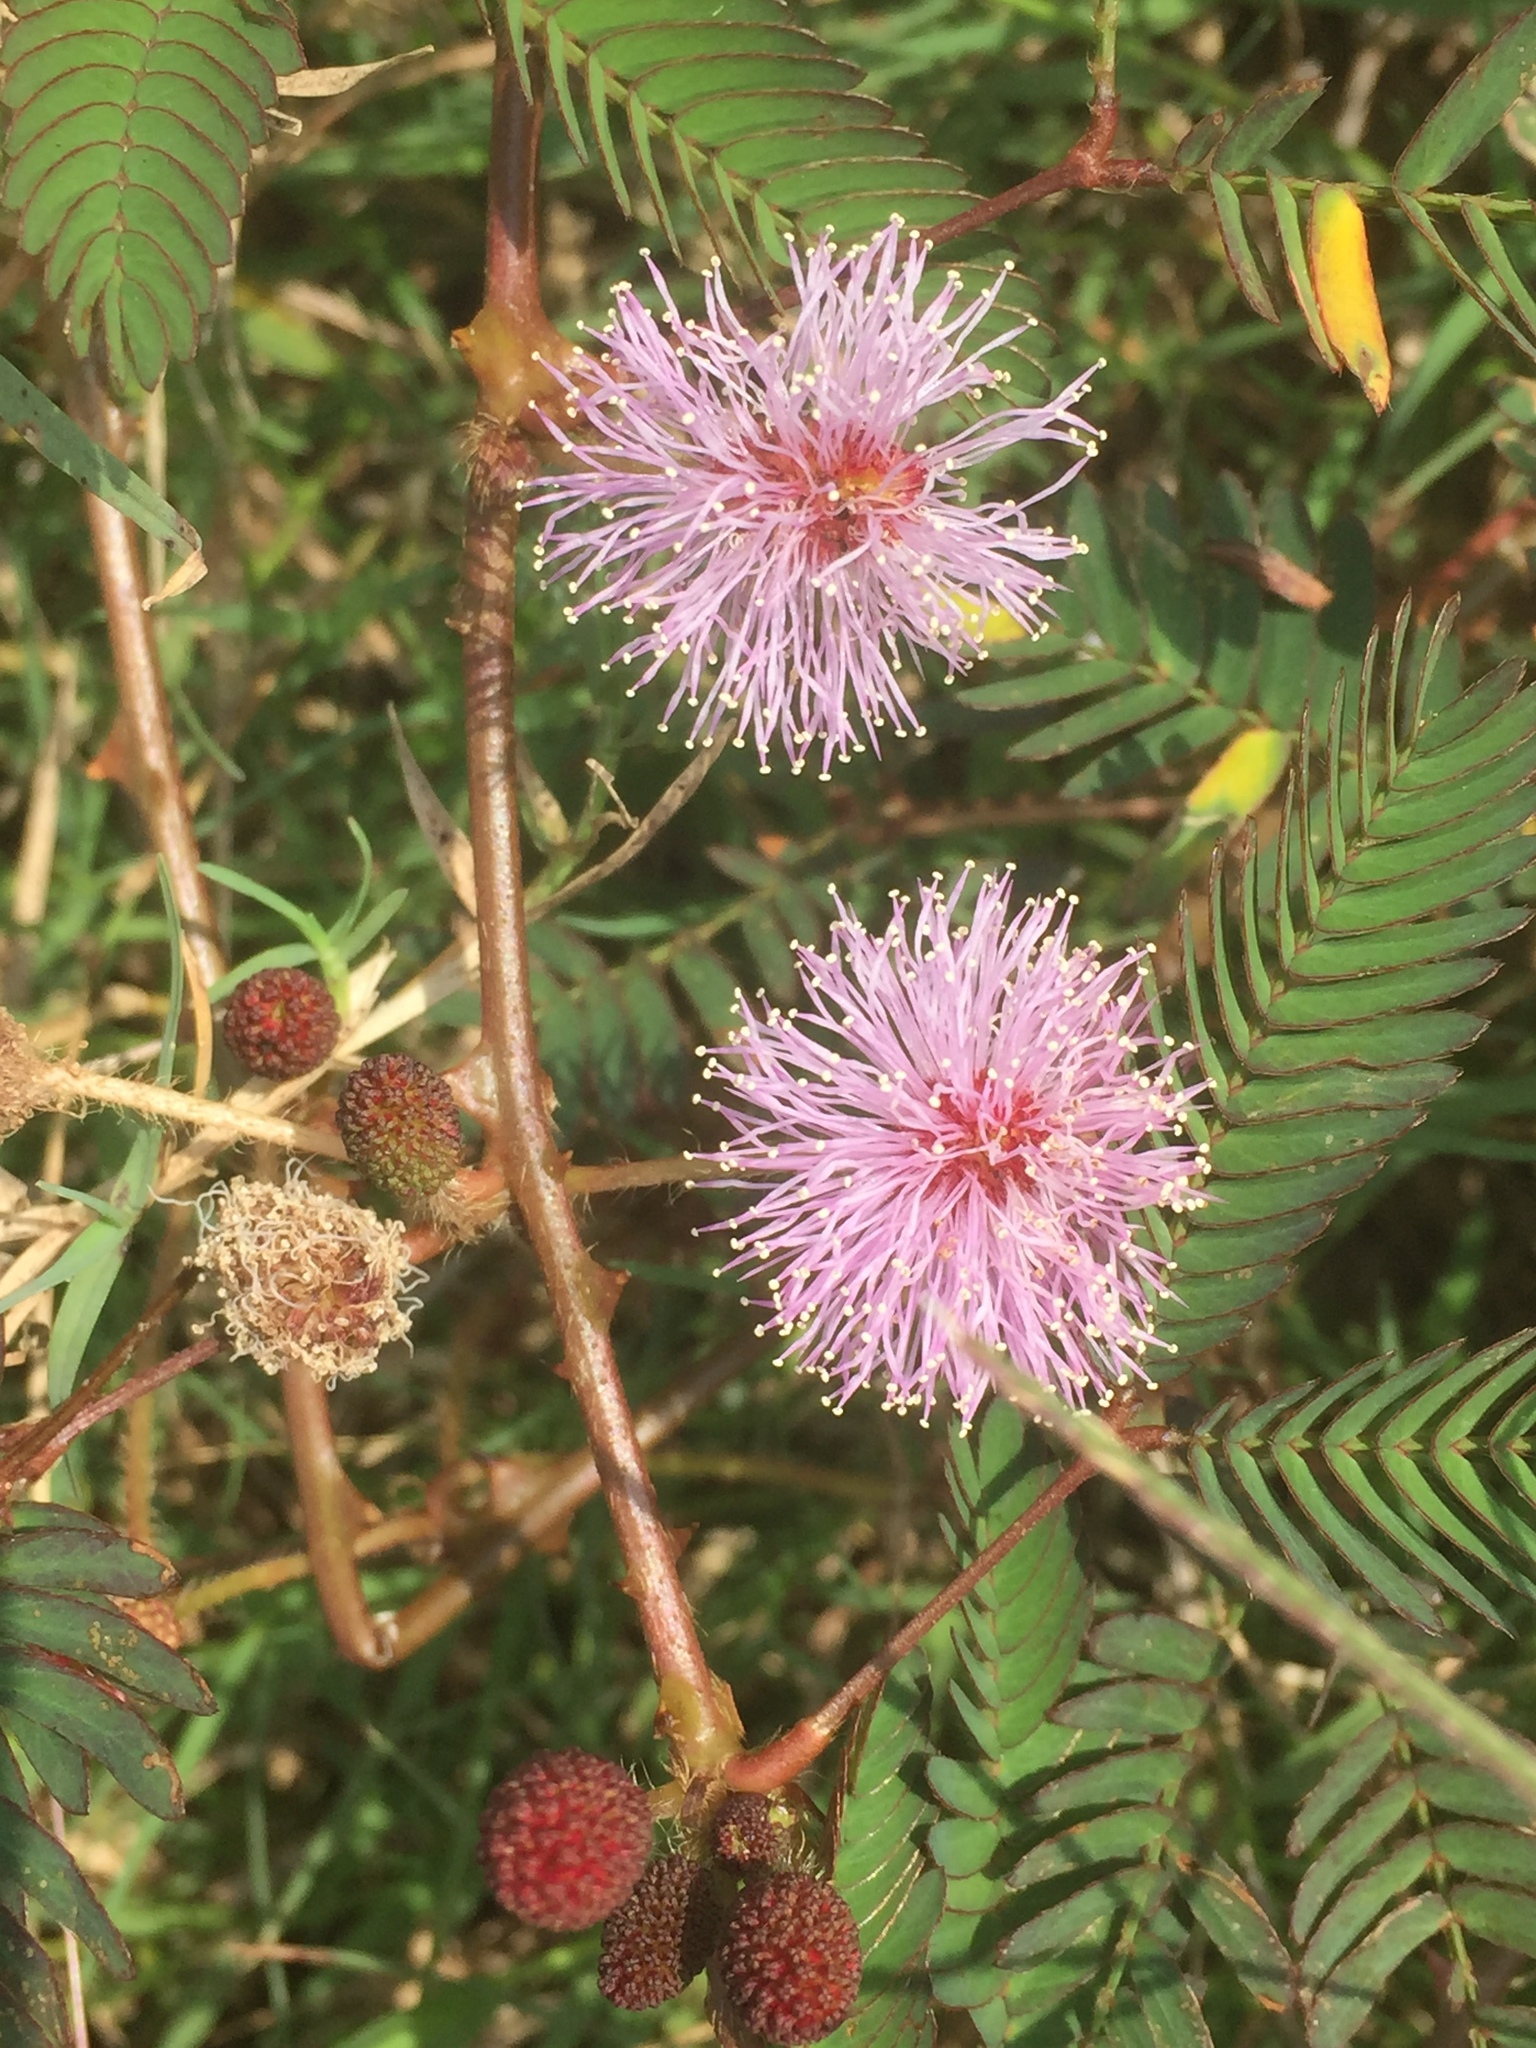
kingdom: Plantae
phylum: Tracheophyta
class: Magnoliopsida
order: Fabales
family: Fabaceae
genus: Mimosa
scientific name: Mimosa pudica
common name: Sensitive plant
